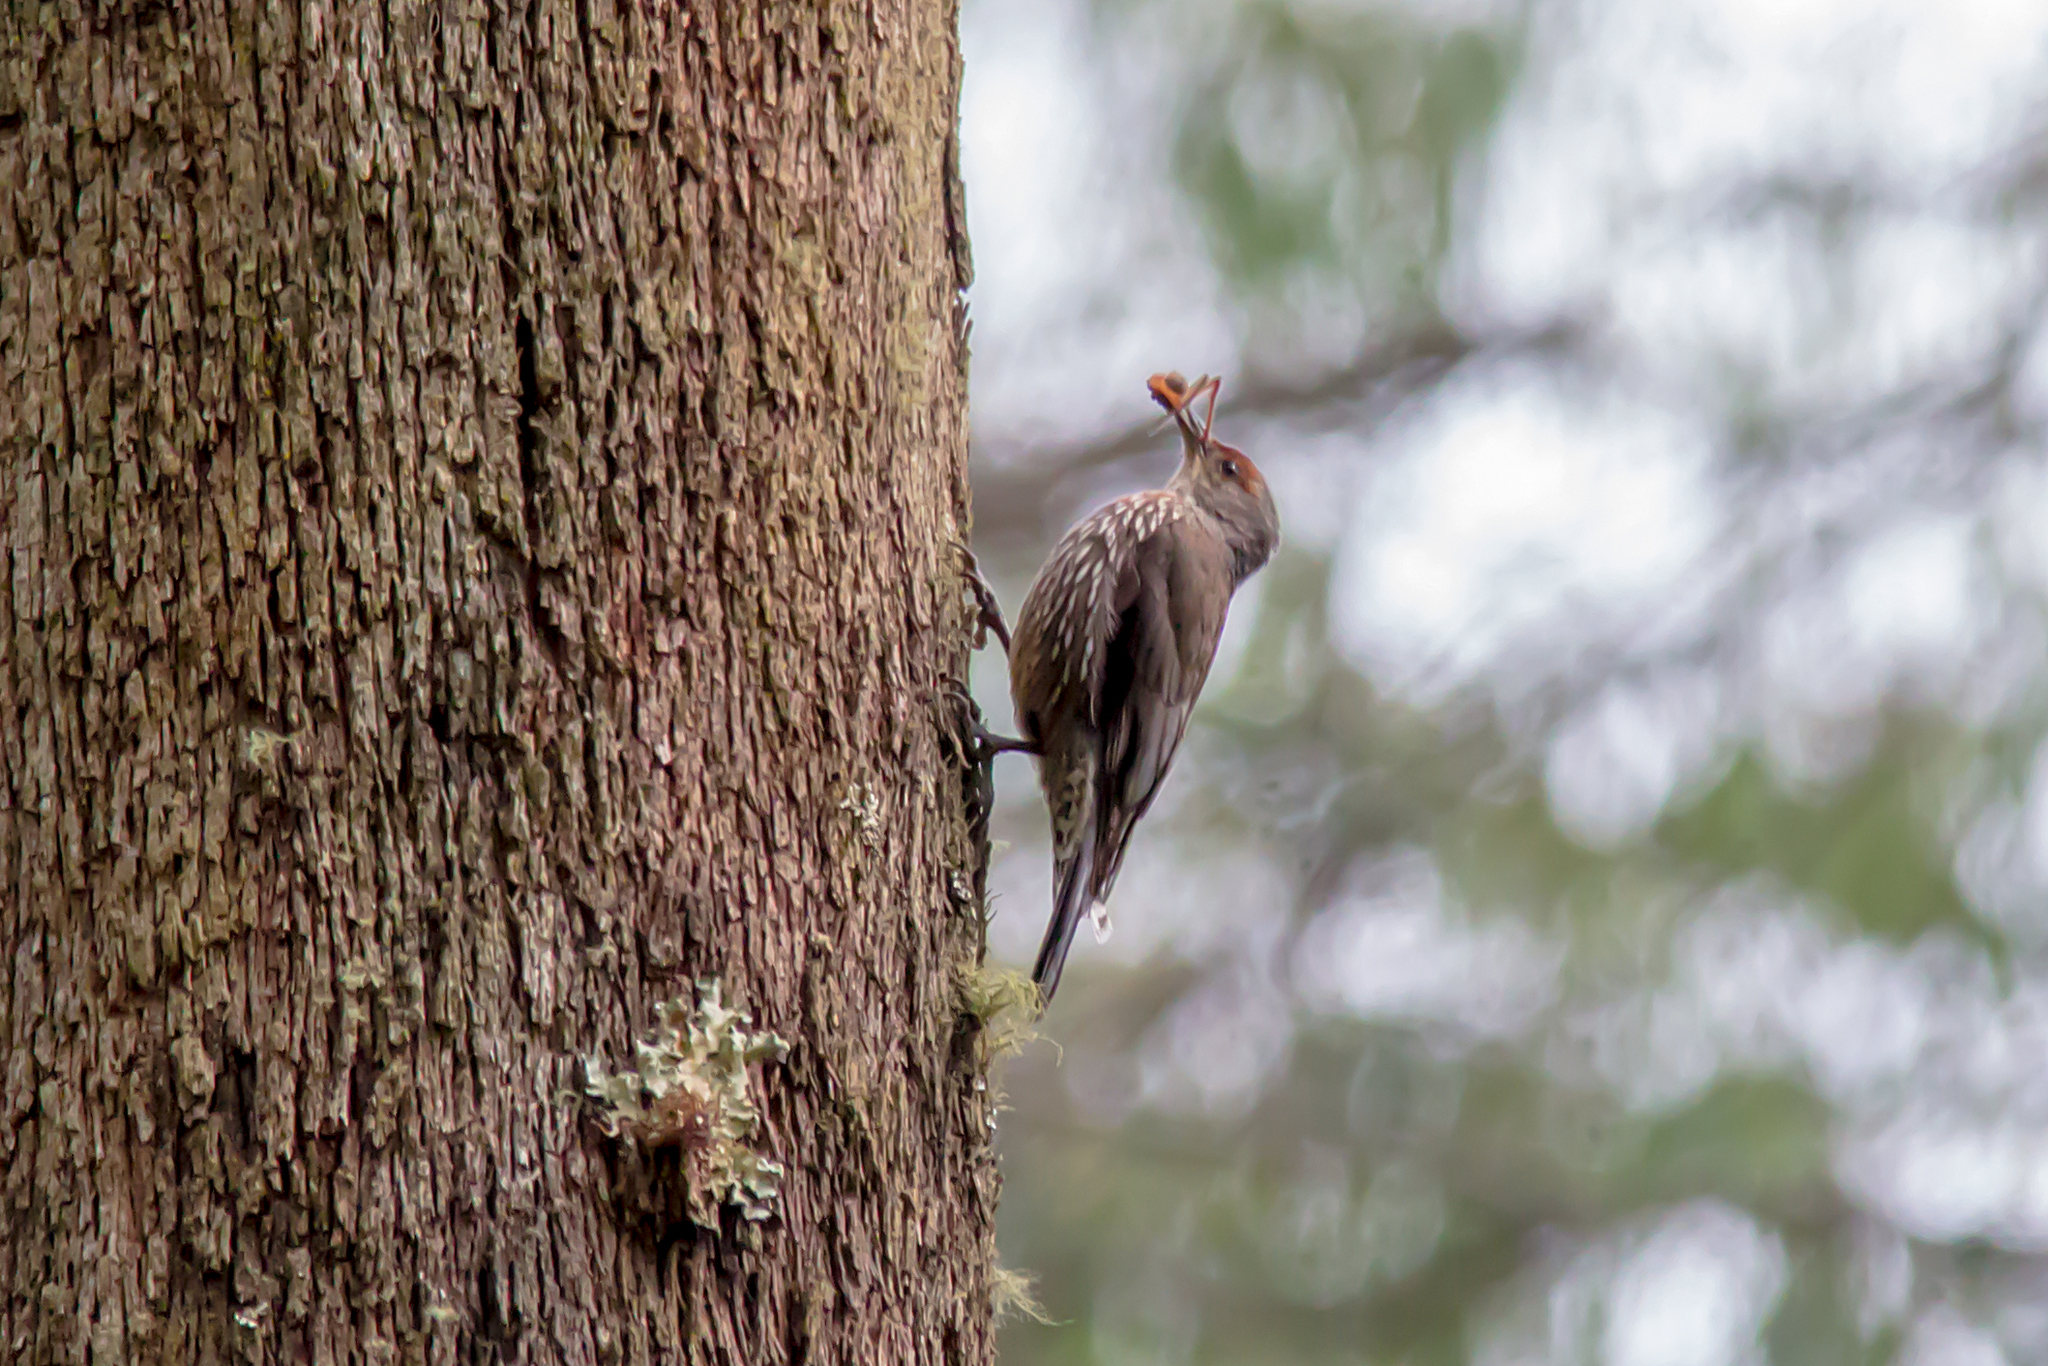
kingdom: Animalia
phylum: Chordata
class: Aves
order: Passeriformes
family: Climacteridae
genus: Climacteris
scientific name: Climacteris erythrops
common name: Red-browed treecreeper
